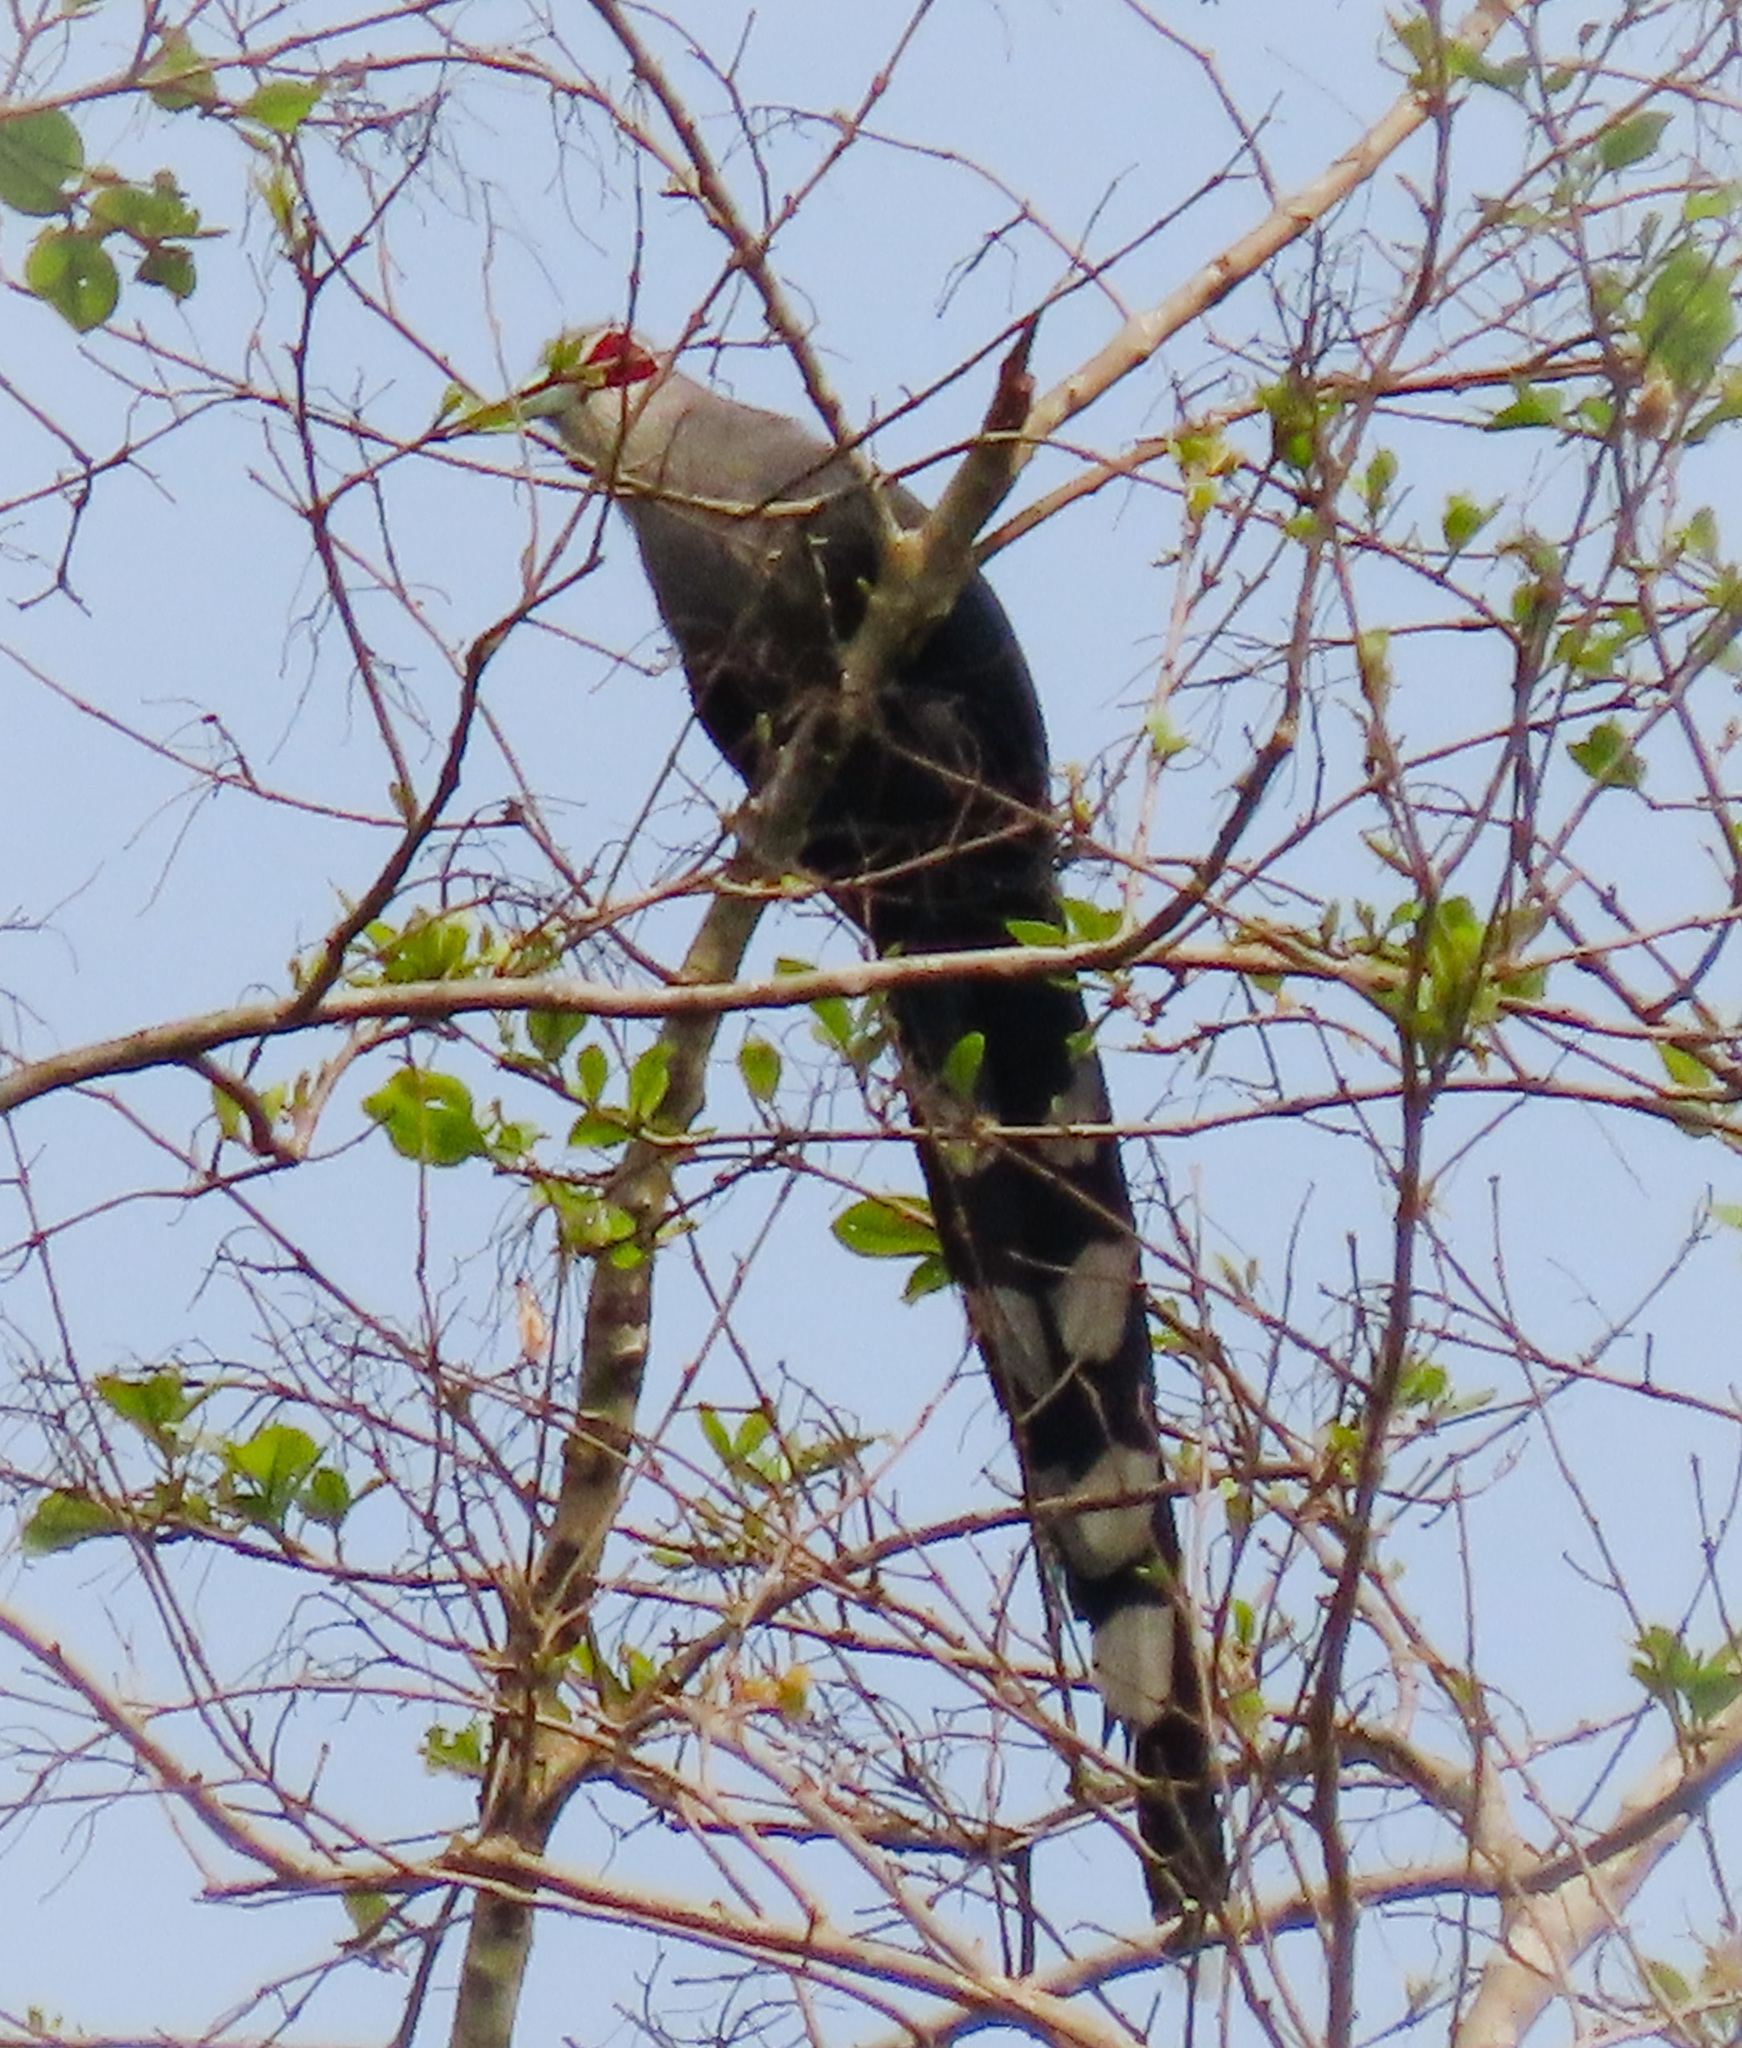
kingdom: Animalia
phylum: Chordata
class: Aves
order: Cuculiformes
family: Cuculidae
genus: Rhopodytes
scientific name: Rhopodytes tristis
